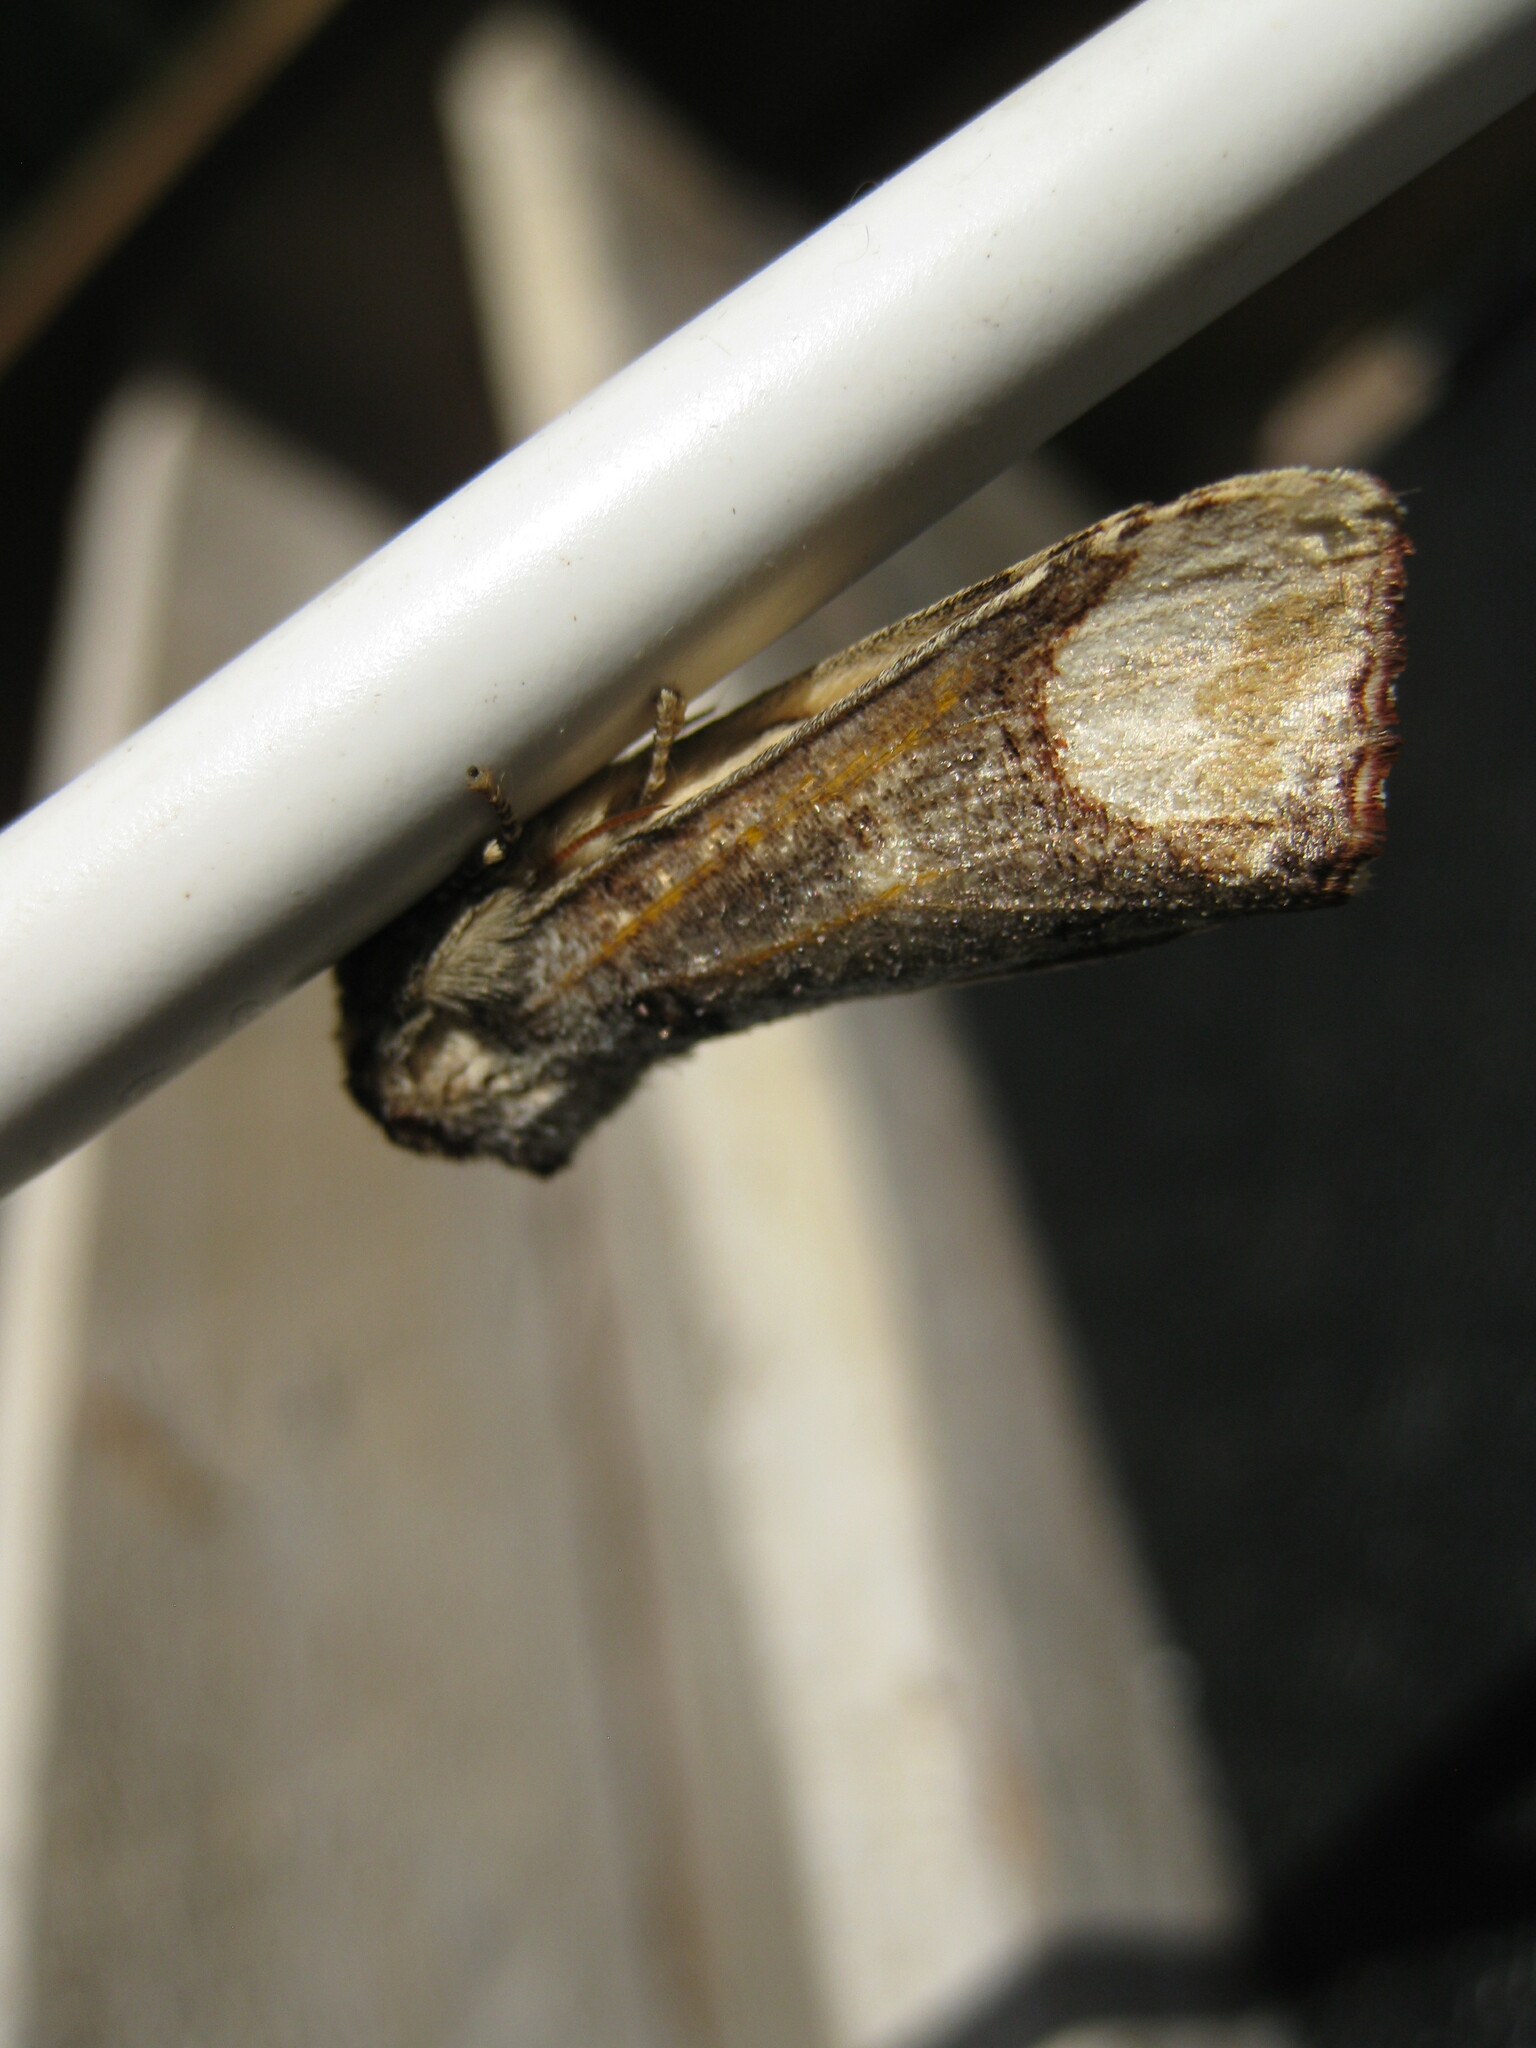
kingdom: Animalia
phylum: Arthropoda
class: Insecta
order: Lepidoptera
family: Notodontidae
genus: Phalera
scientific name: Phalera bucephala
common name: Buff-tip
